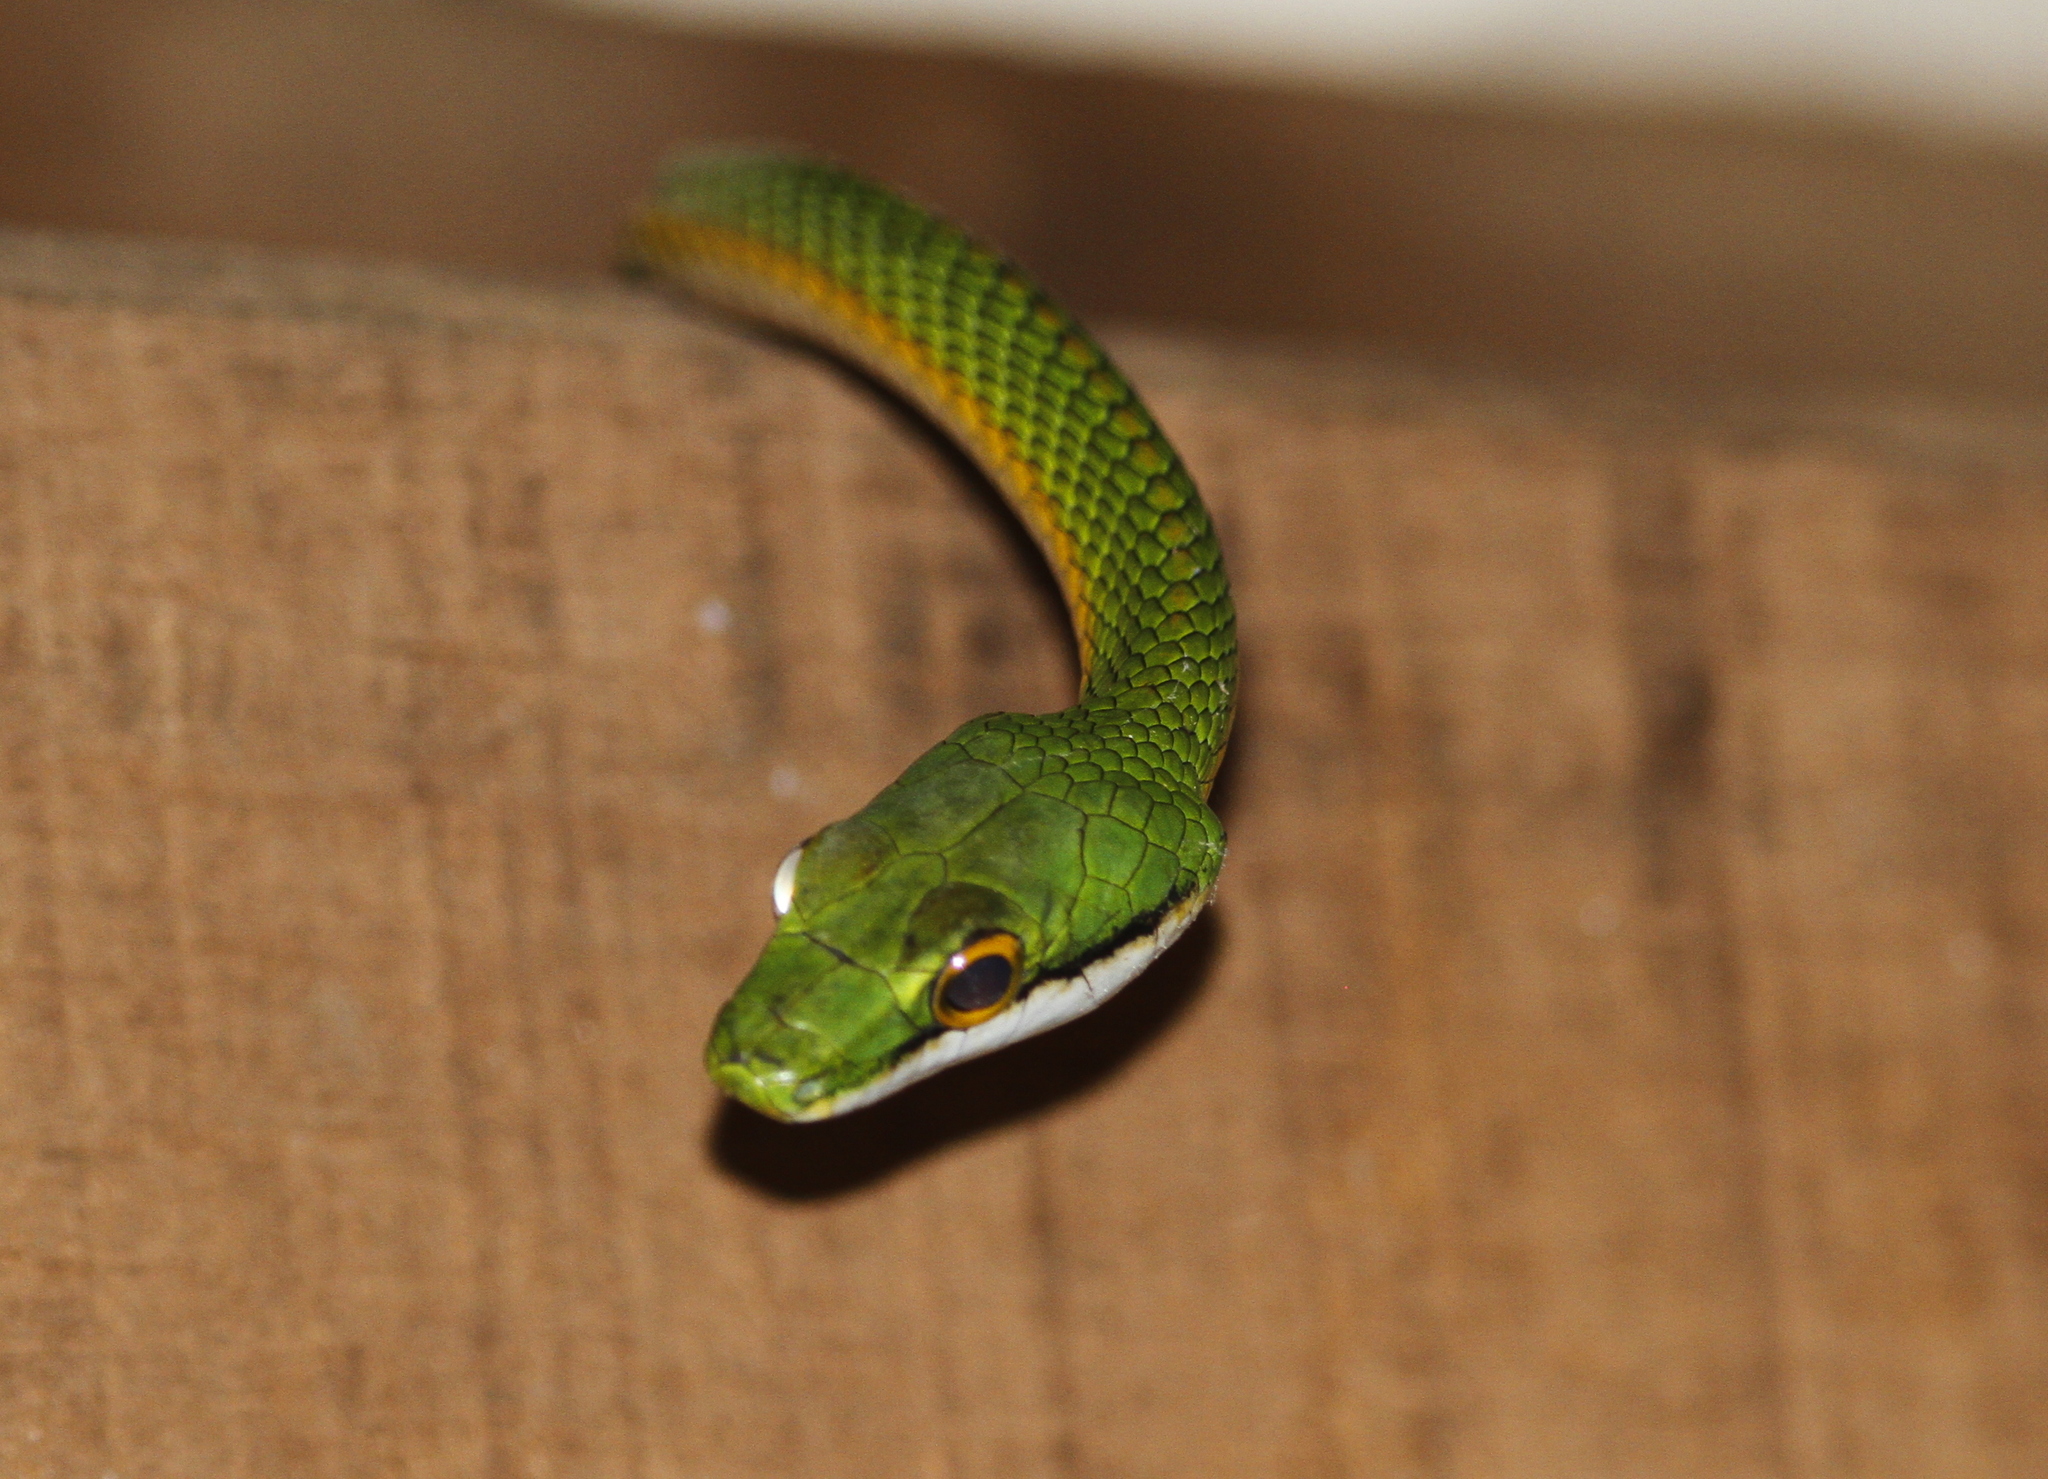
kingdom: Animalia
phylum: Chordata
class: Squamata
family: Colubridae
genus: Leptophis
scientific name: Leptophis ahaetulla
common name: Parrot snake
